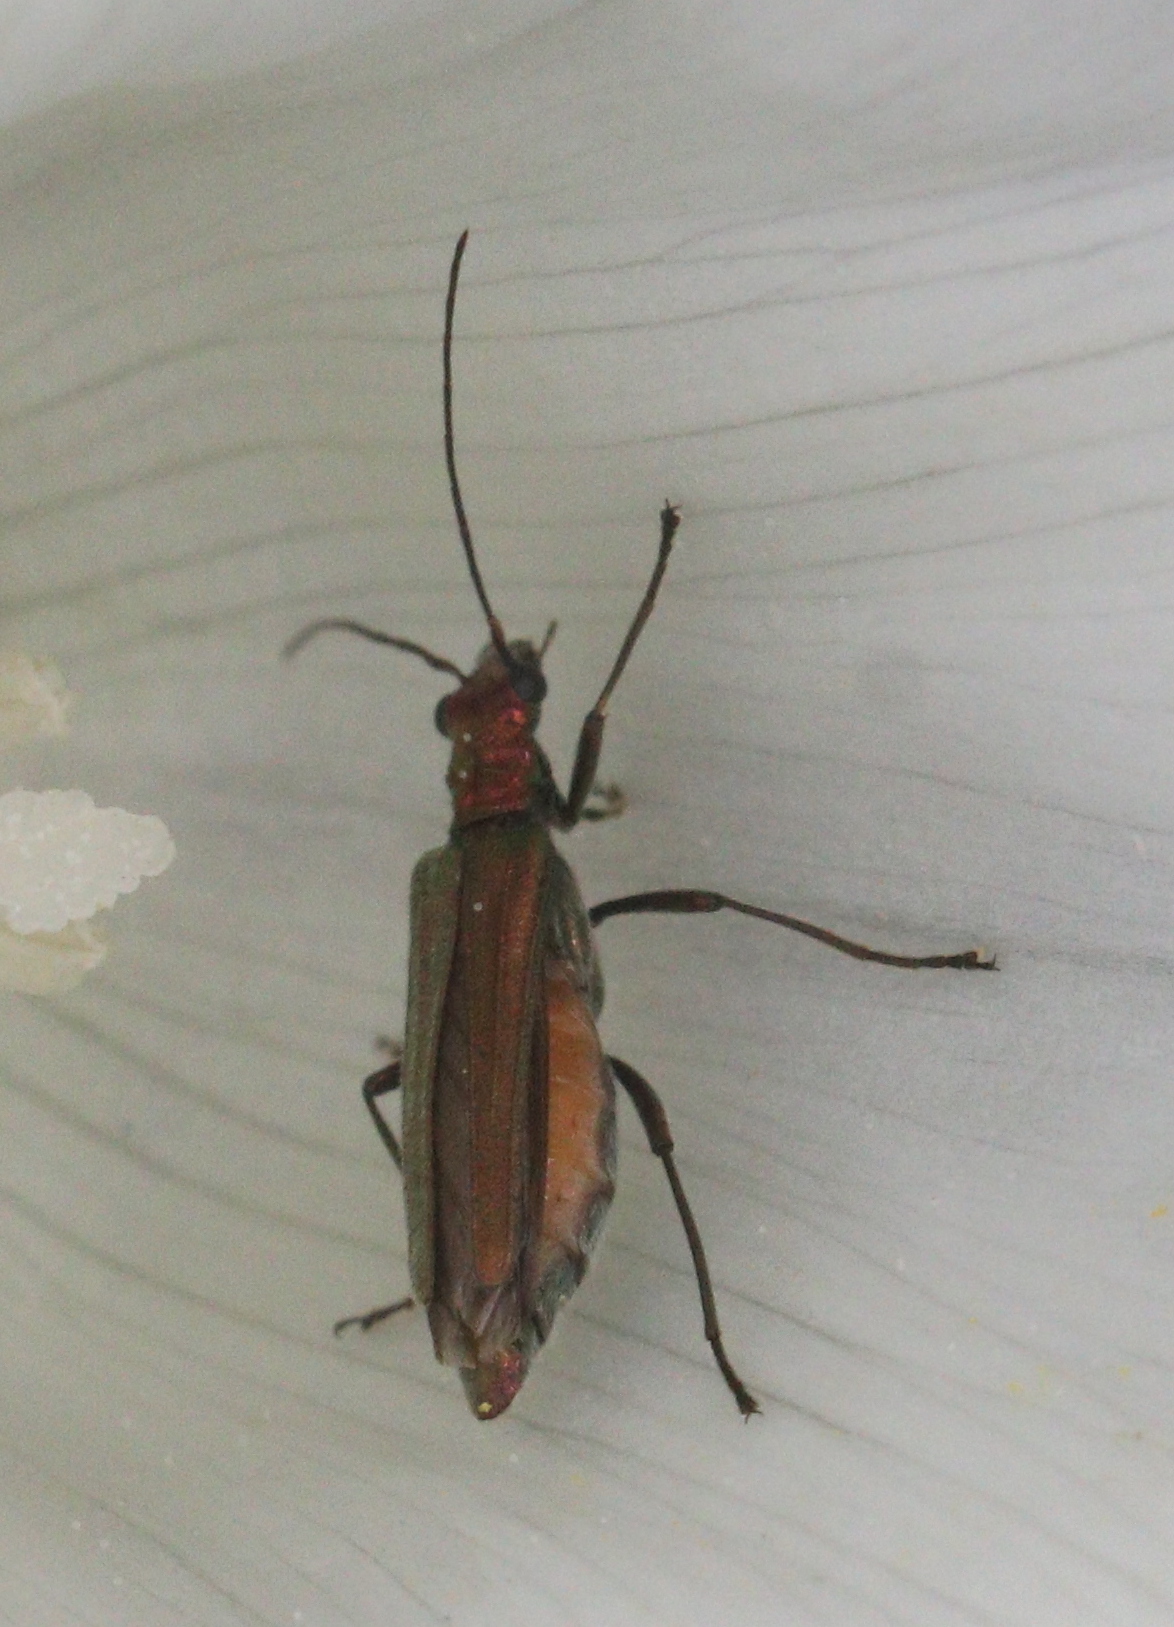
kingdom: Animalia
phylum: Arthropoda
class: Insecta
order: Coleoptera
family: Oedemeridae
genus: Oedemera
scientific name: Oedemera nobilis
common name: Swollen-thighed beetle
